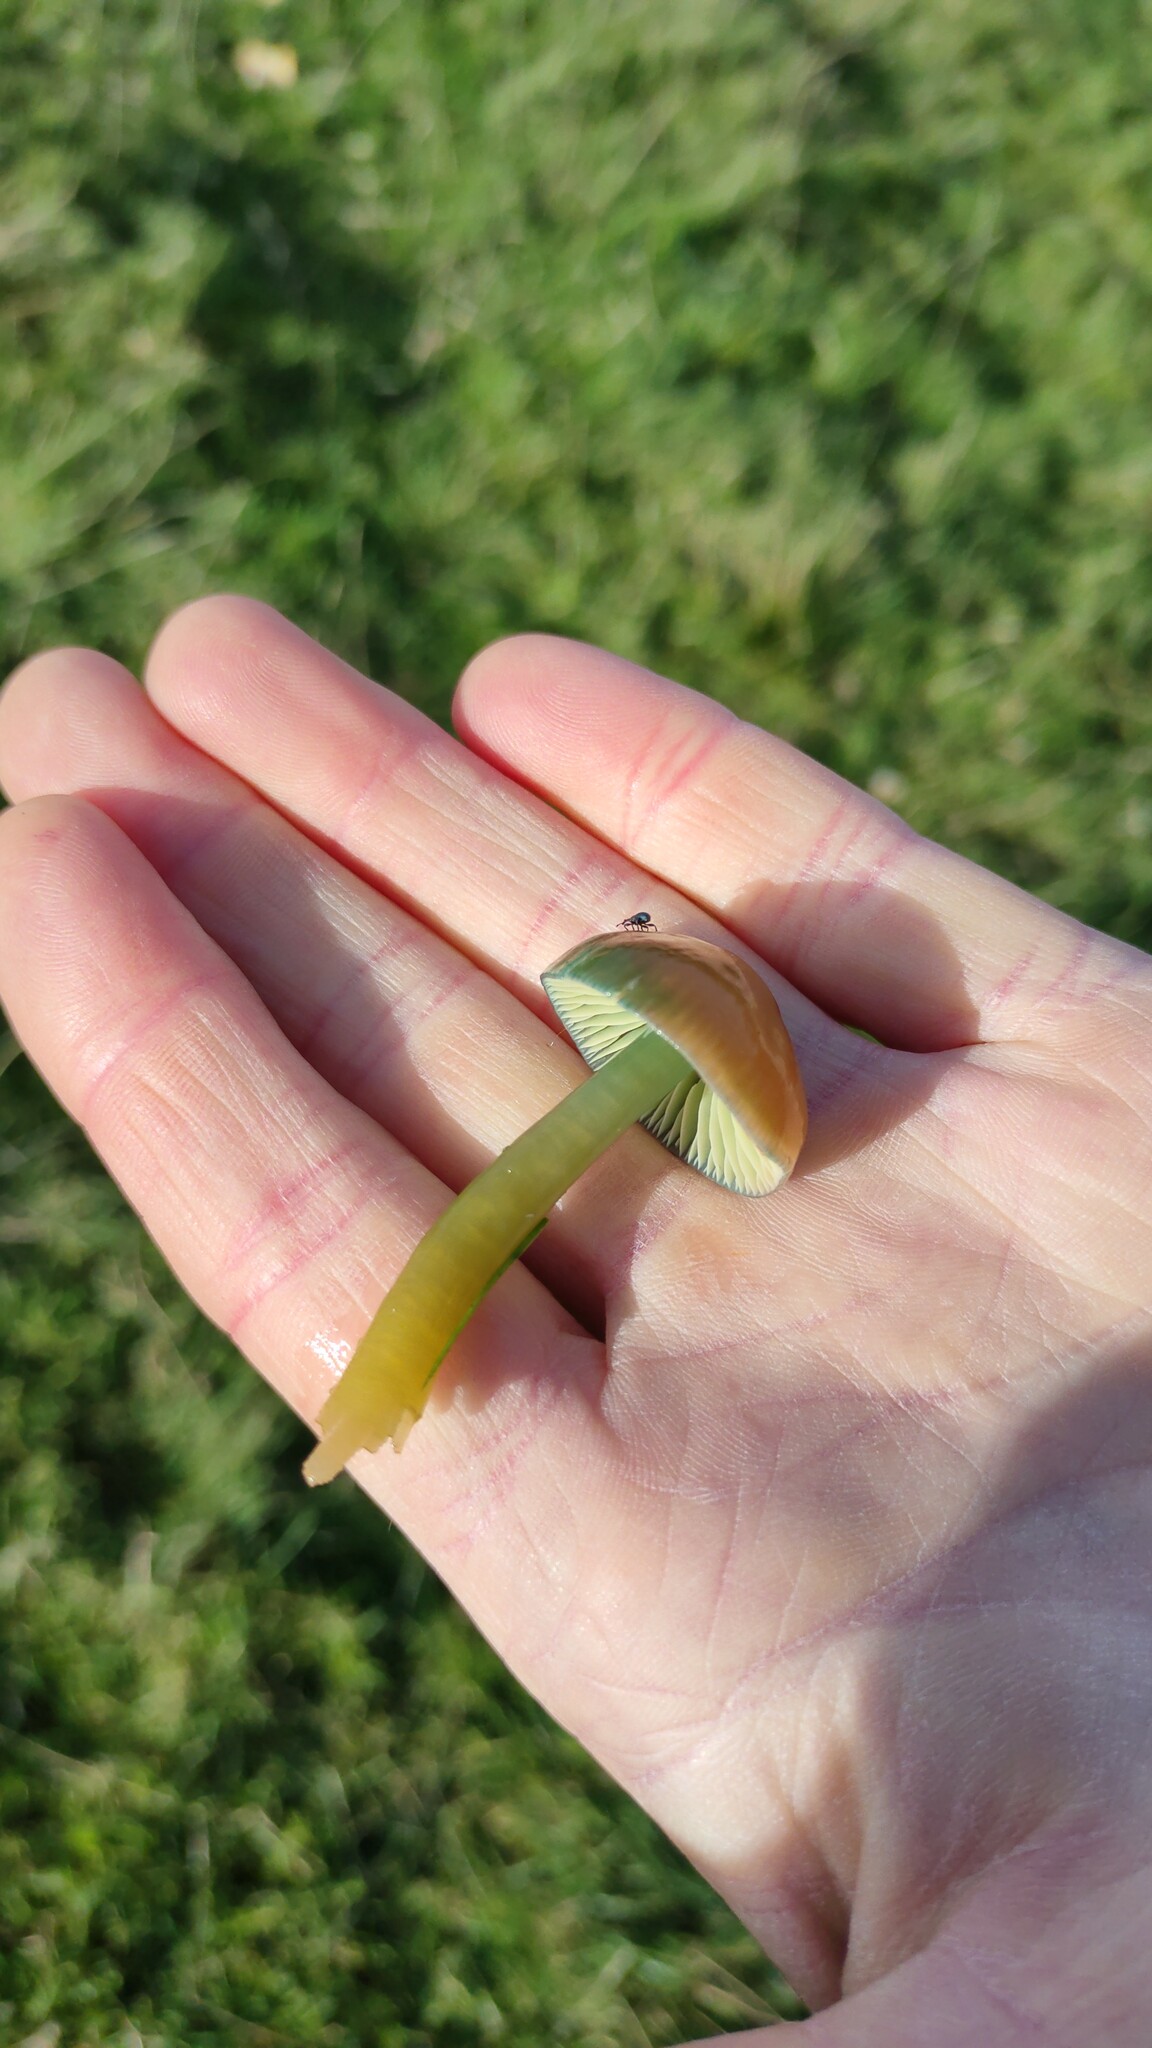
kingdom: Fungi
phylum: Basidiomycota
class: Agaricomycetes
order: Agaricales
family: Hygrophoraceae
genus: Gliophorus
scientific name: Gliophorus psittacinus
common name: Parrot wax-cap
